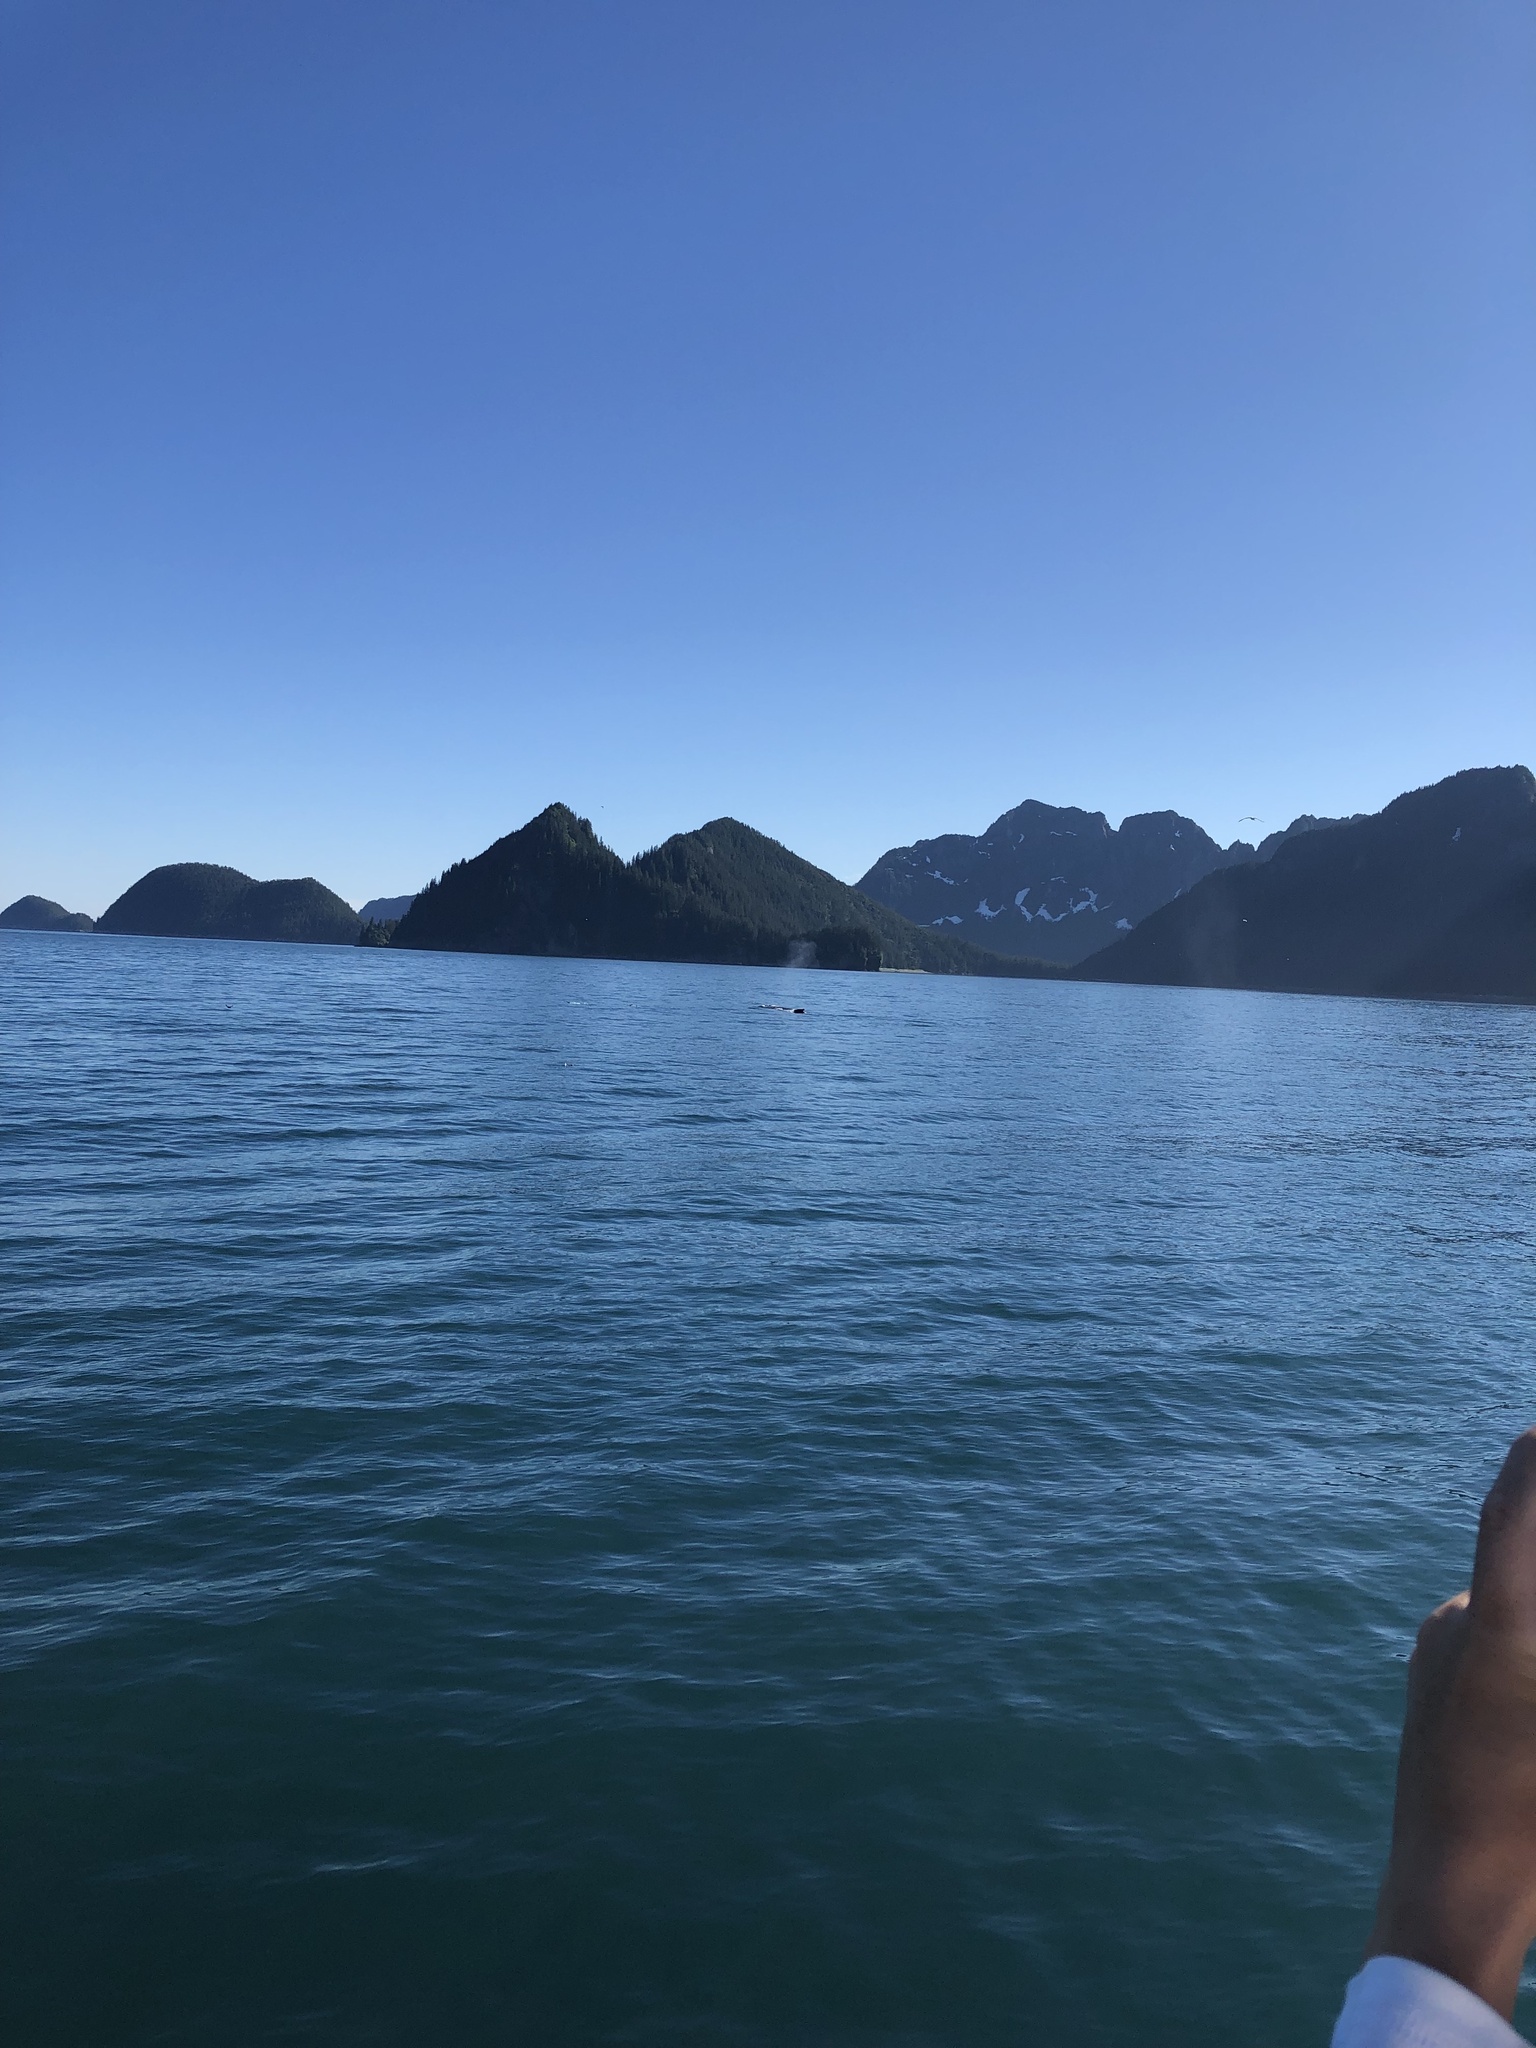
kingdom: Animalia
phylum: Chordata
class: Mammalia
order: Cetacea
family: Balaenopteridae
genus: Megaptera
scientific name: Megaptera novaeangliae
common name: Humpback whale
